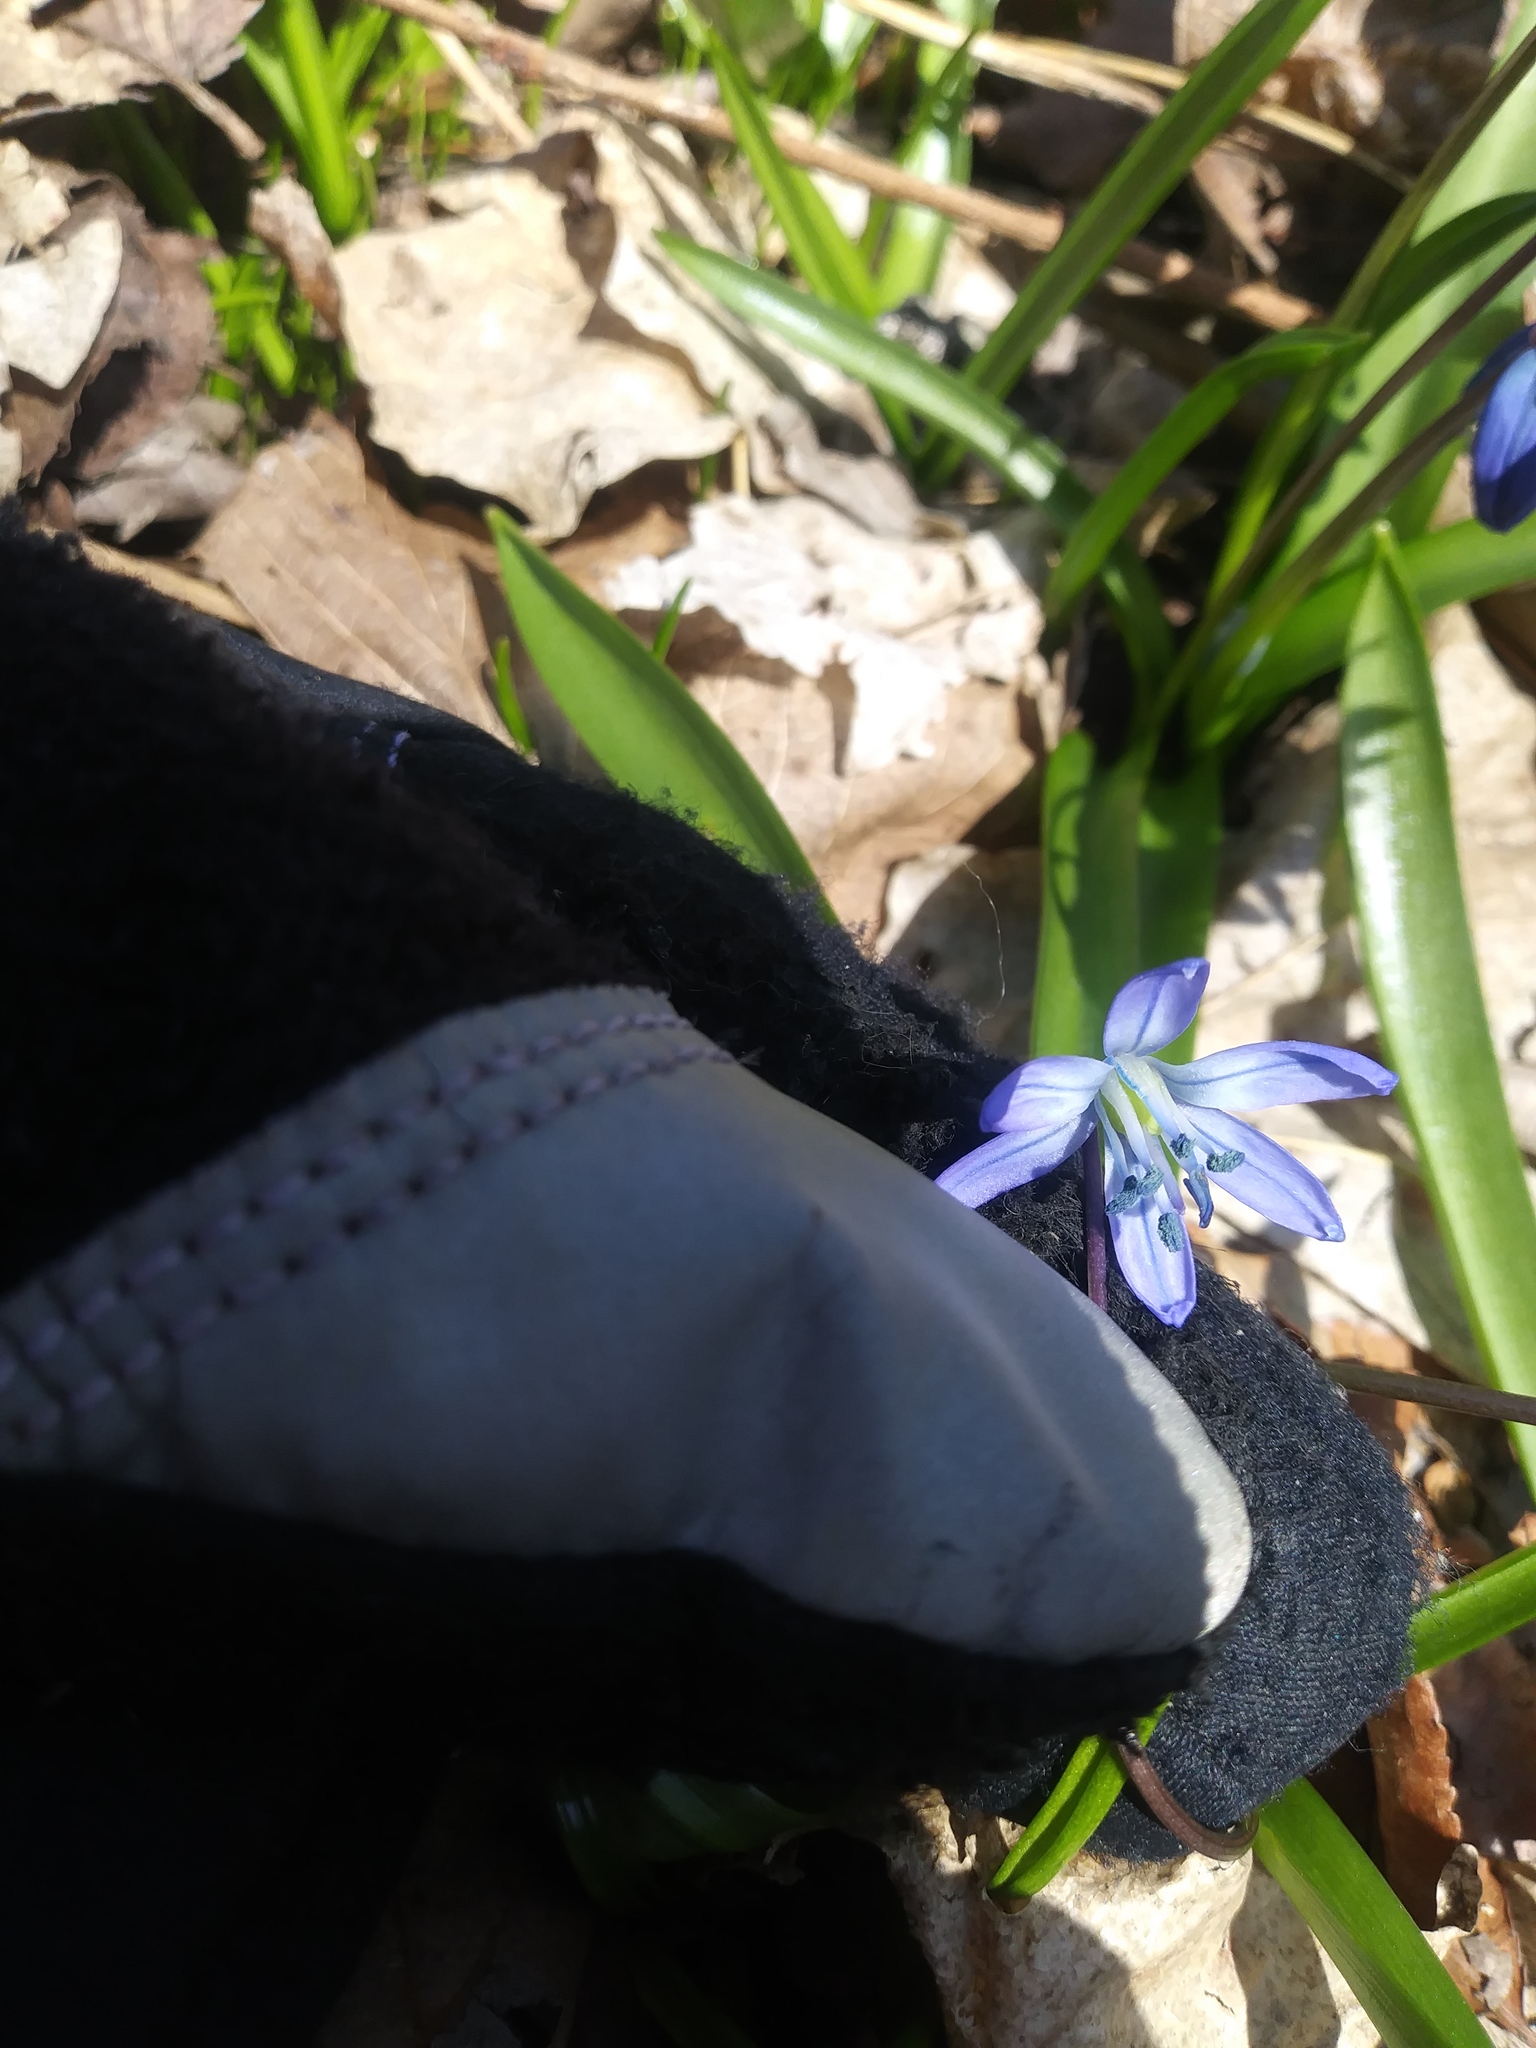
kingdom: Plantae
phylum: Tracheophyta
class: Liliopsida
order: Asparagales
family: Asparagaceae
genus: Scilla
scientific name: Scilla siberica
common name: Siberian squill
